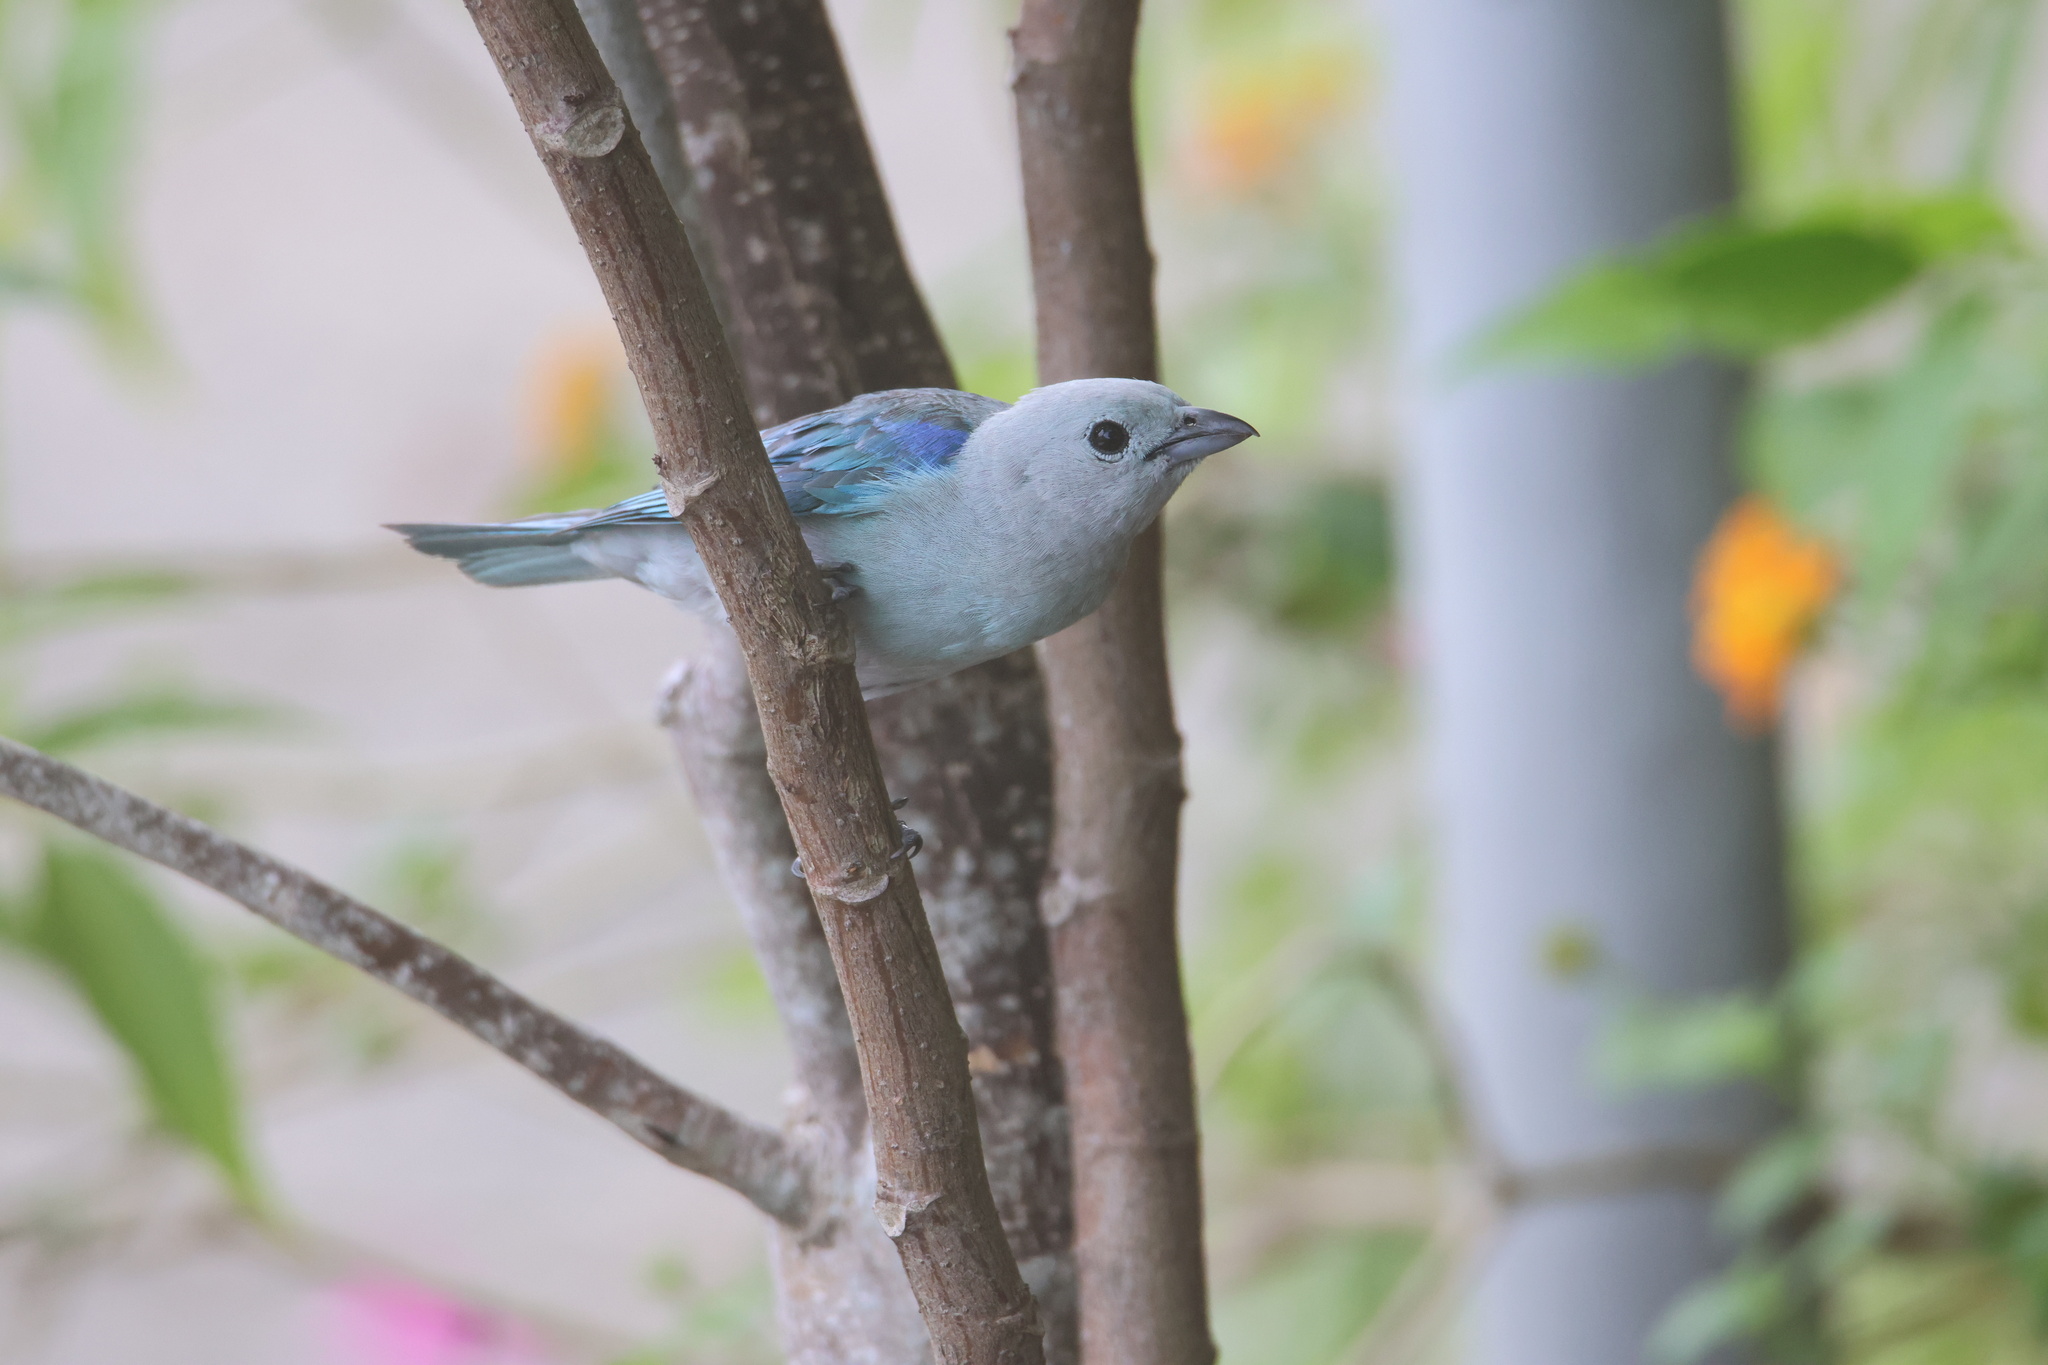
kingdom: Animalia
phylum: Chordata
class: Aves
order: Passeriformes
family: Thraupidae
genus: Thraupis
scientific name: Thraupis episcopus
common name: Blue-grey tanager
